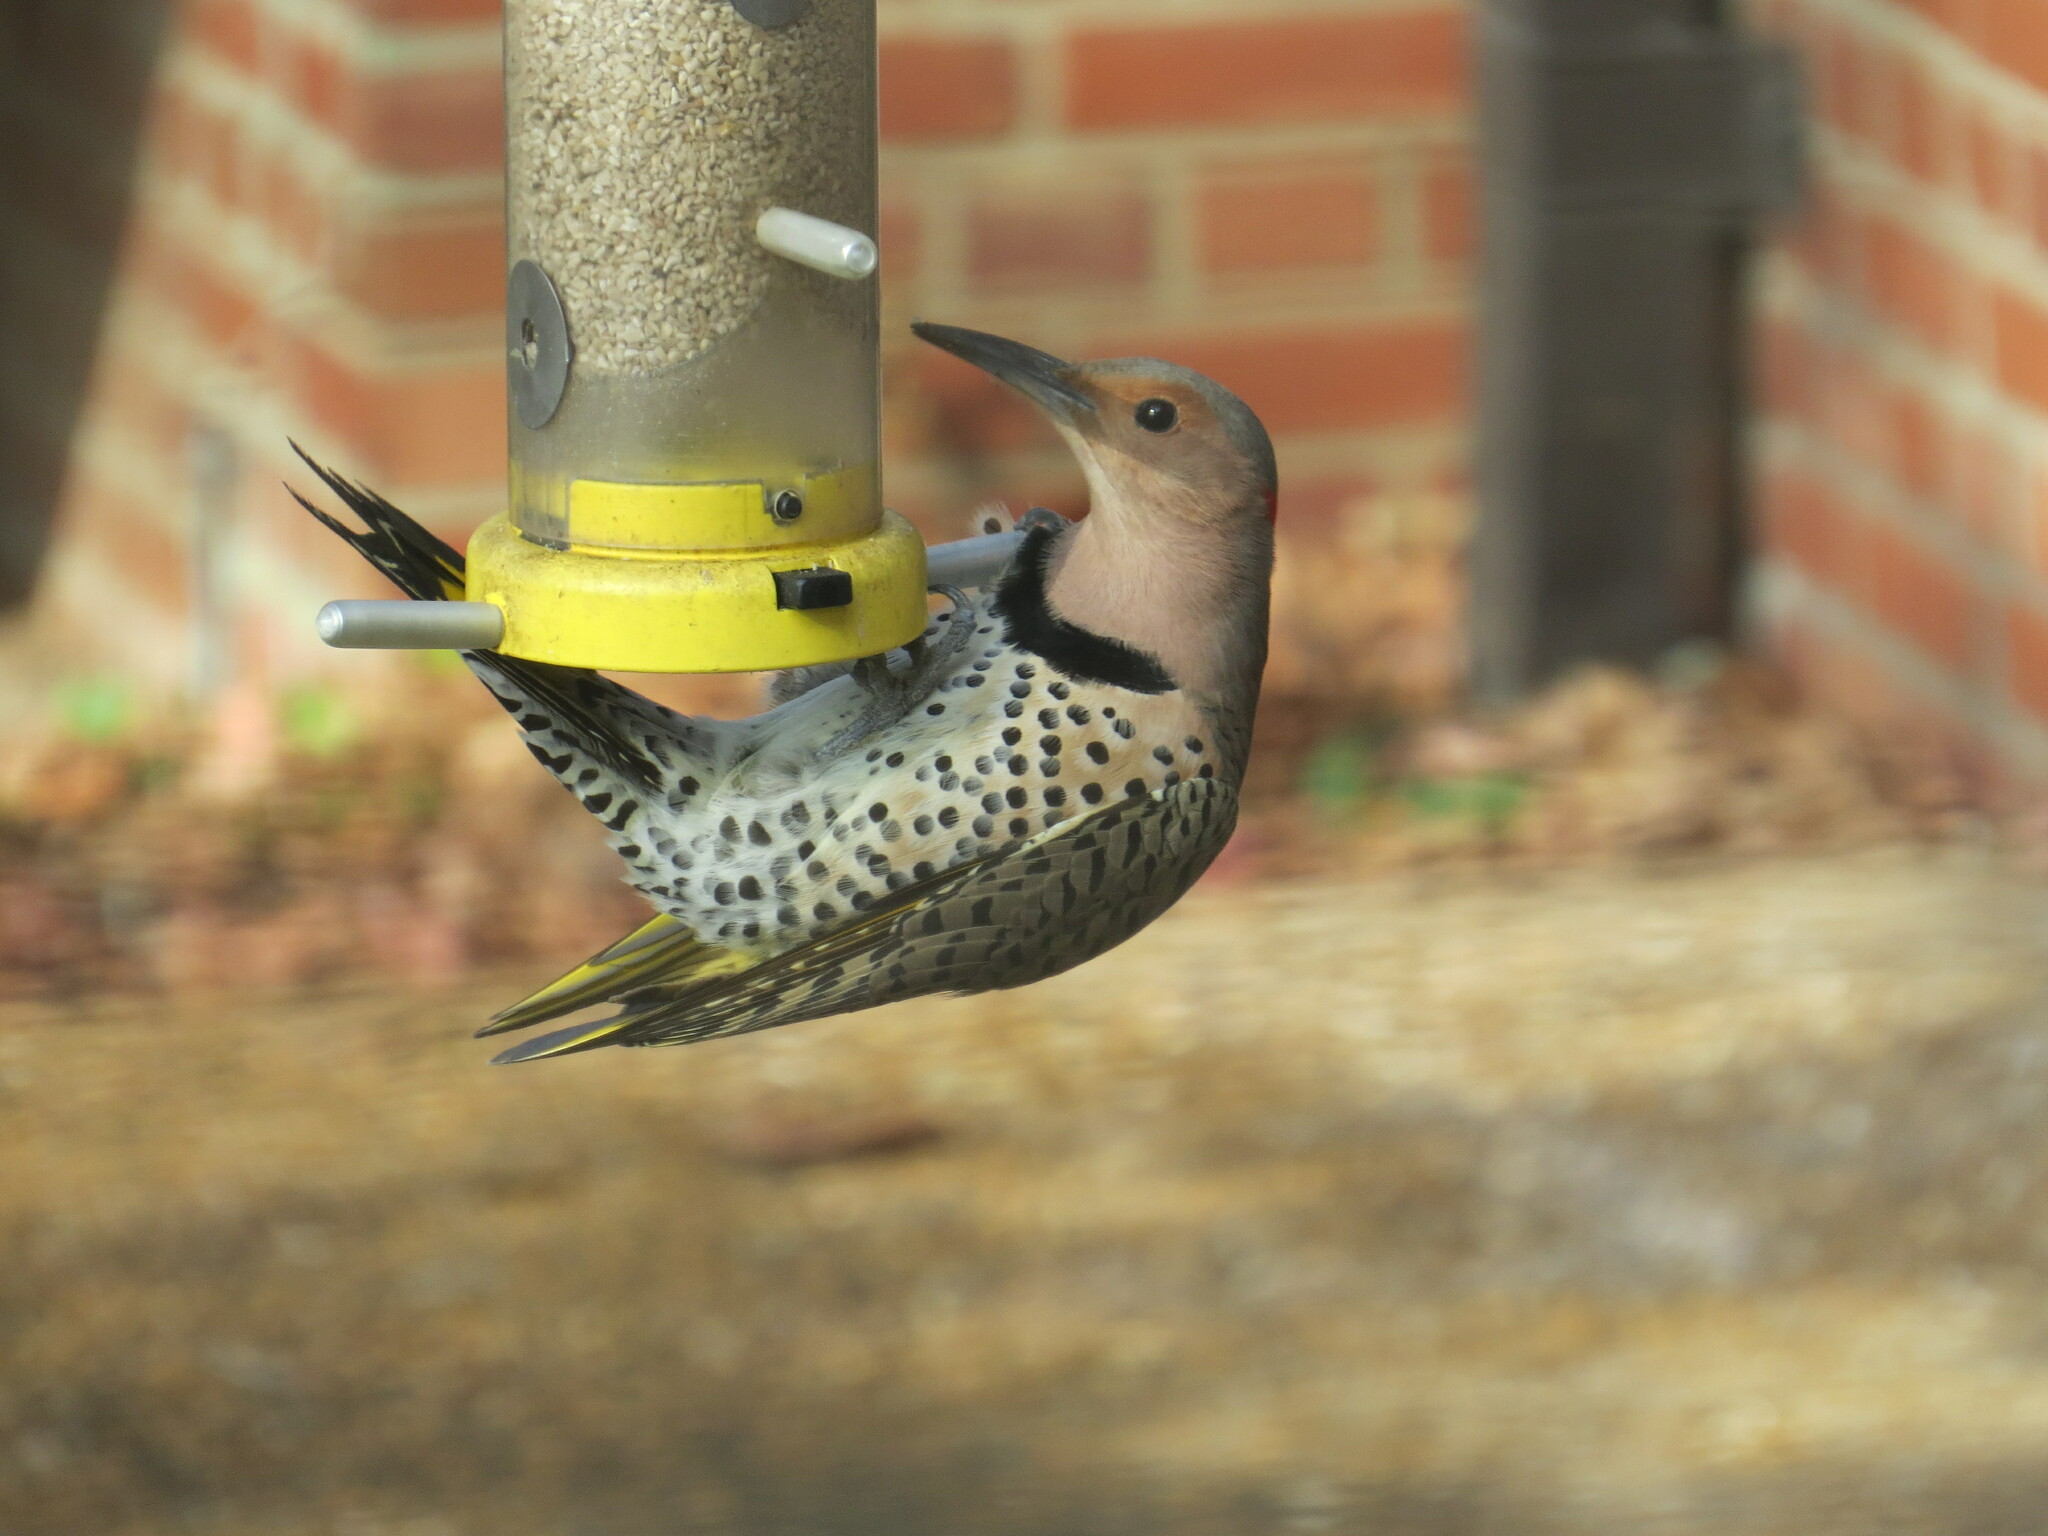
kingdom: Animalia
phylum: Chordata
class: Aves
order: Piciformes
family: Picidae
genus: Colaptes
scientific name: Colaptes auratus
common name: Northern flicker
